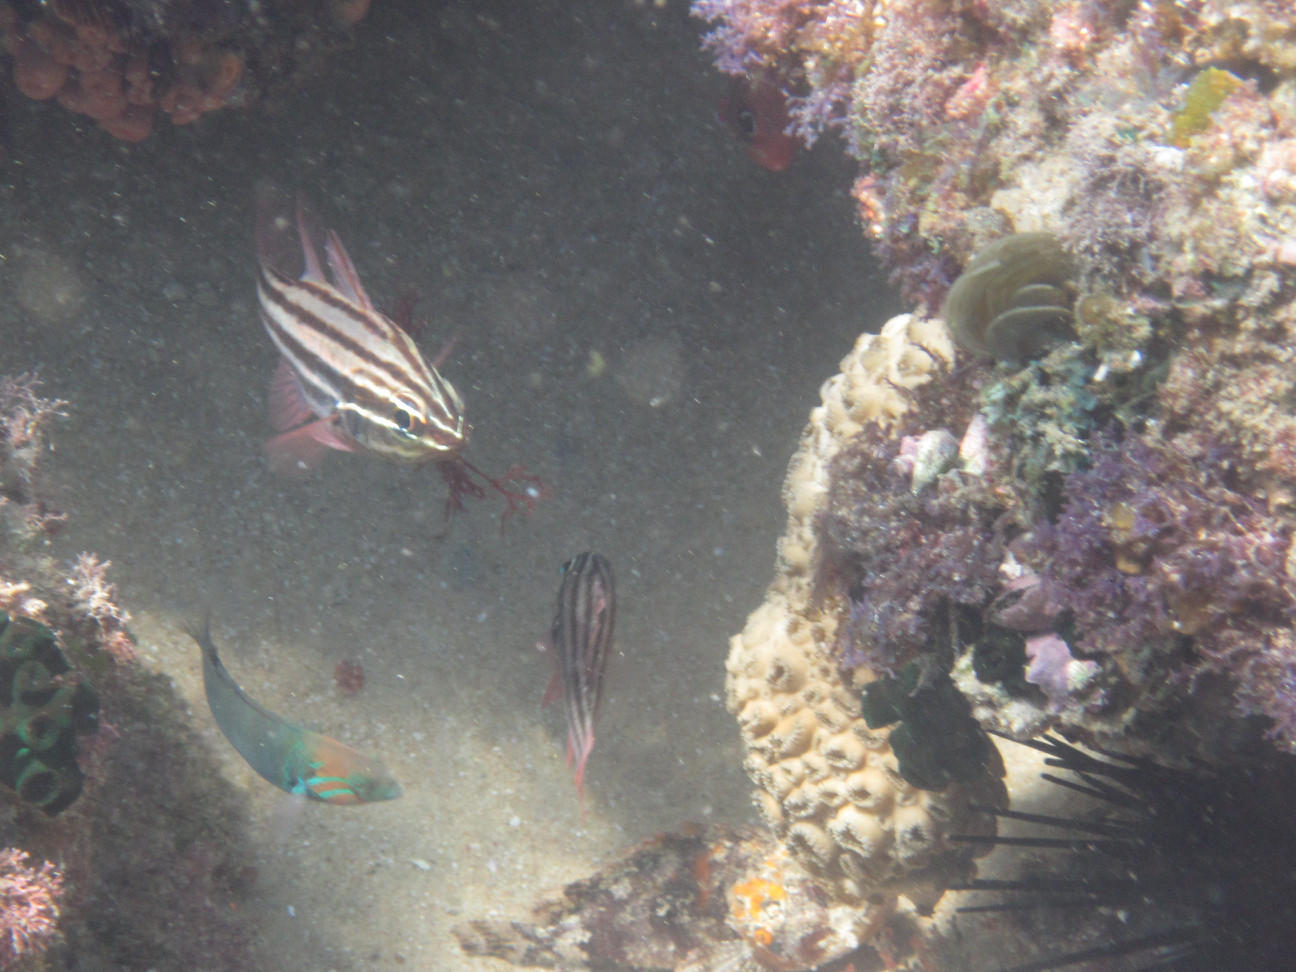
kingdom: Animalia
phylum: Chordata
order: Perciformes
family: Apogonidae
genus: Ostorhinchus
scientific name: Ostorhinchus taeniophorus
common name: Reef-flat cardinalfish
